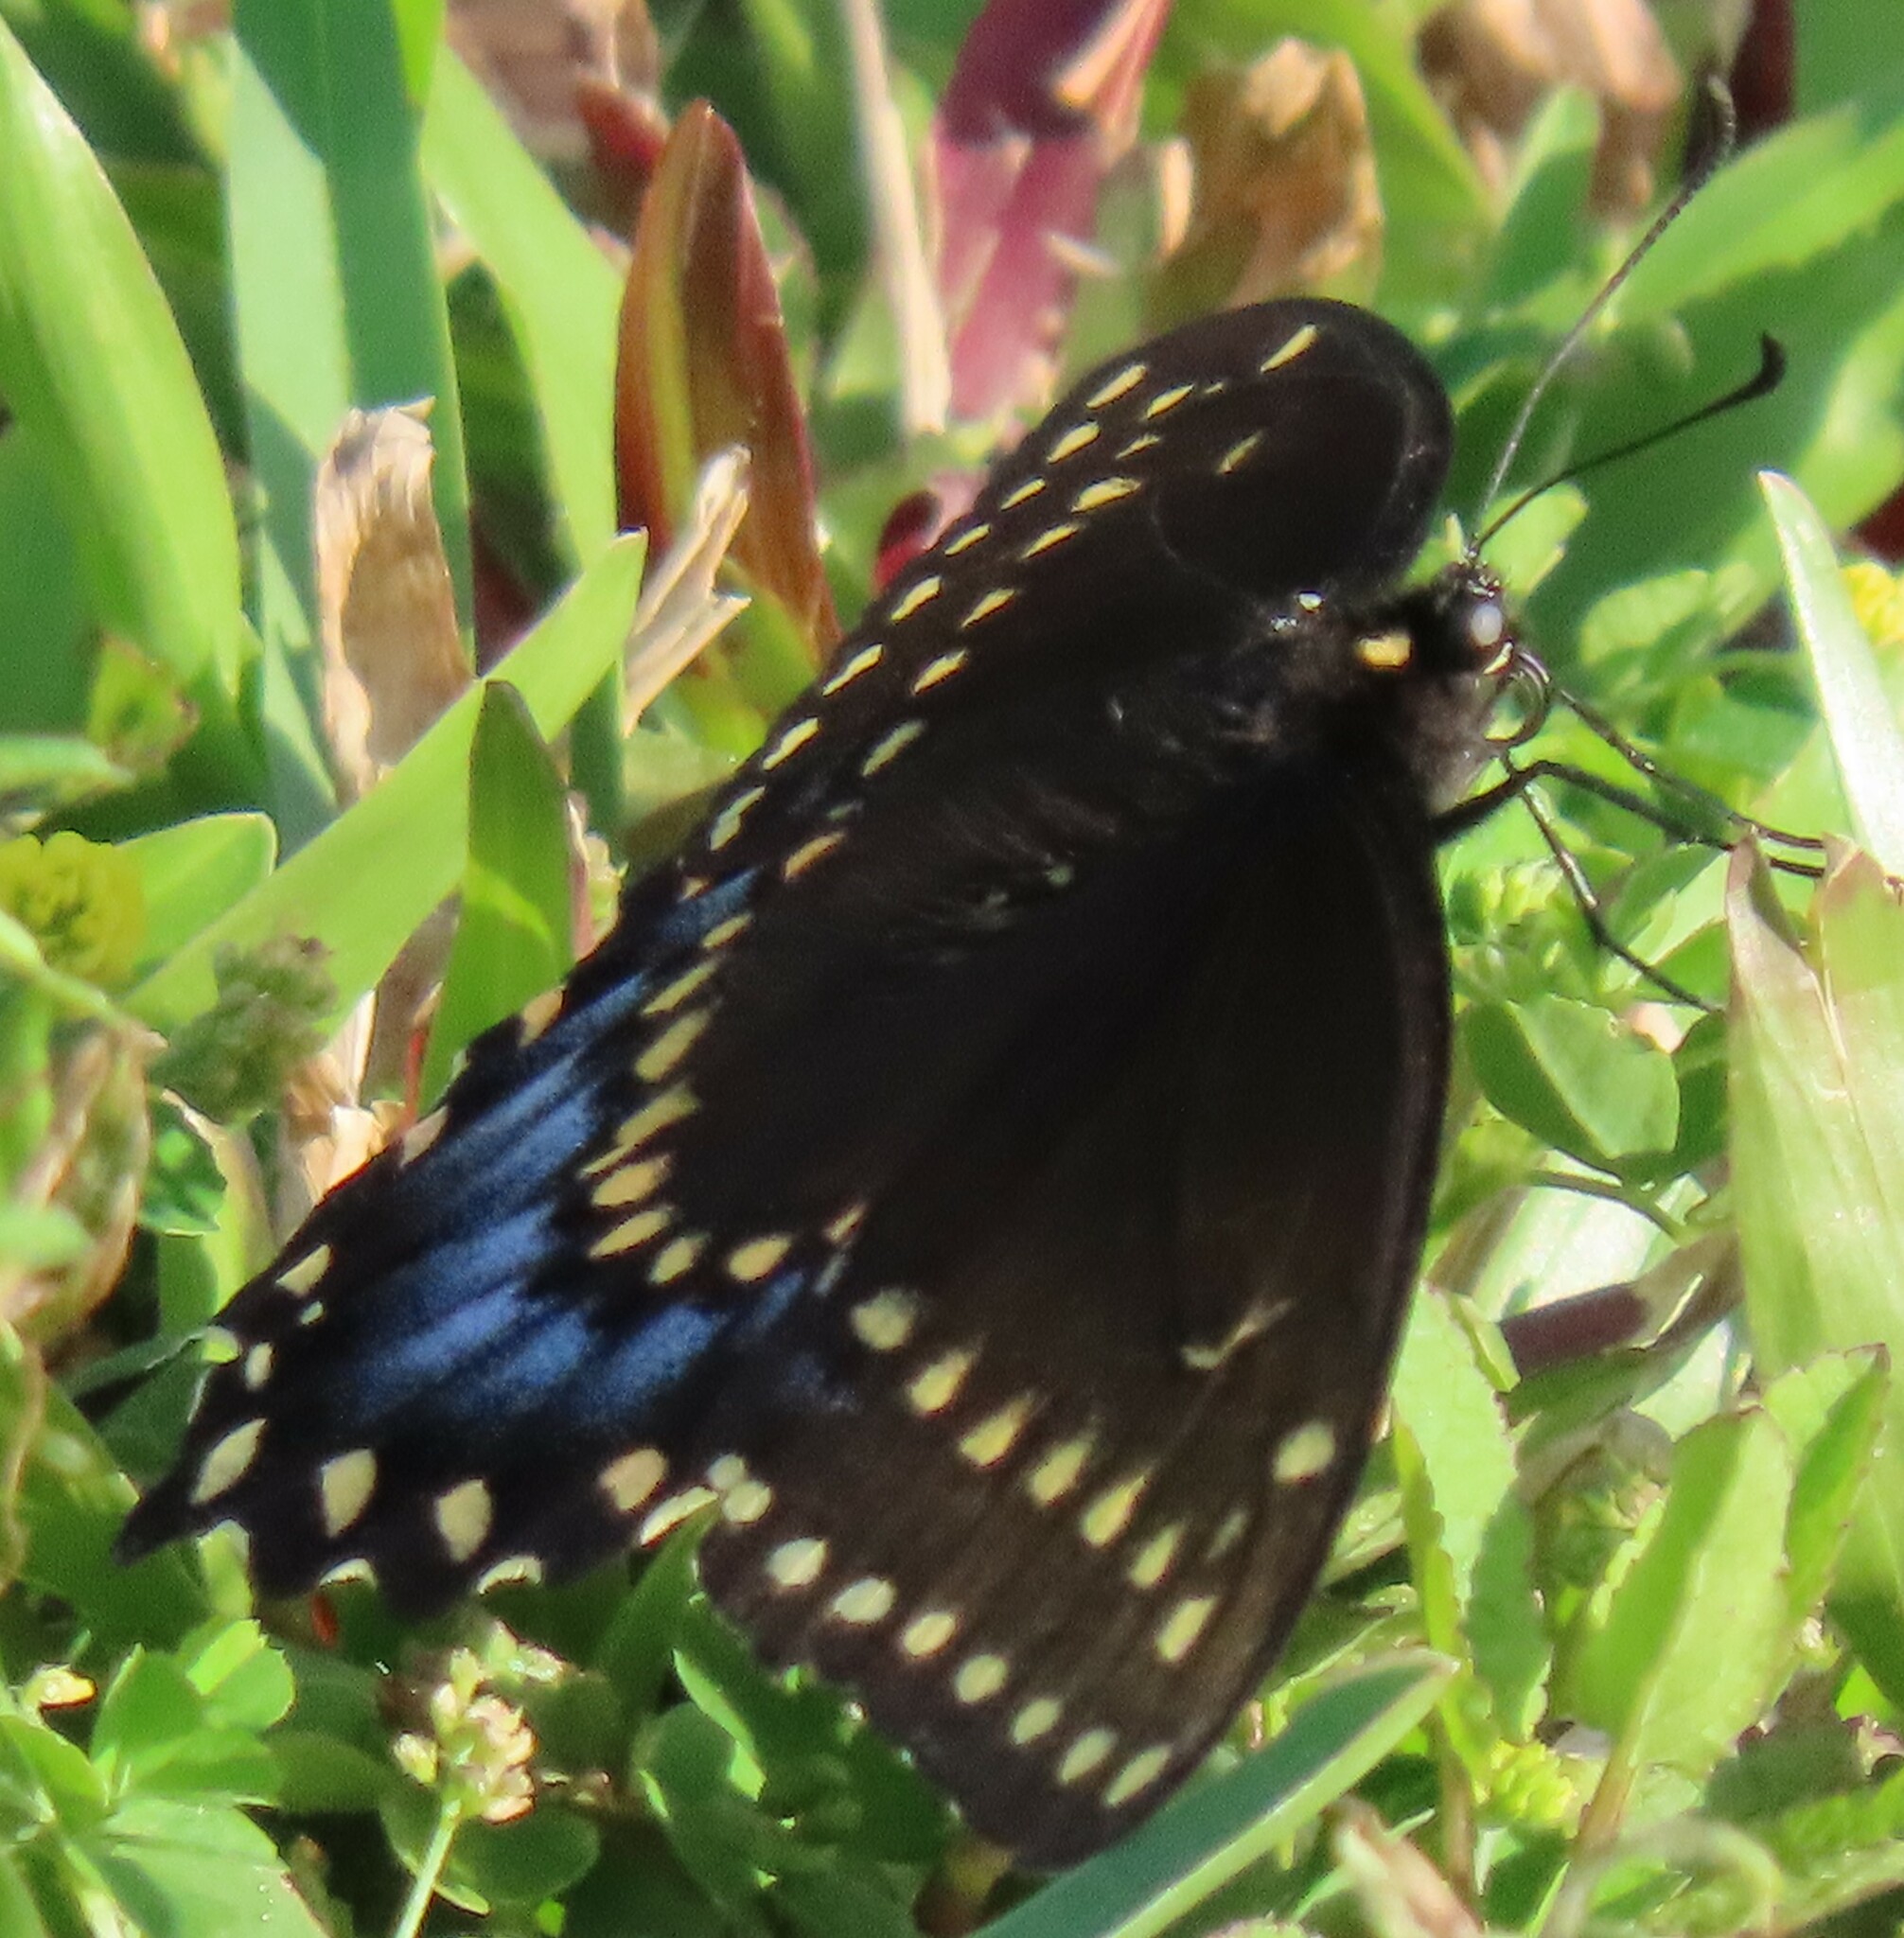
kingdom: Animalia
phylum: Arthropoda
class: Insecta
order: Lepidoptera
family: Papilionidae
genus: Papilio
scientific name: Papilio polyxenes
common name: Black swallowtail
